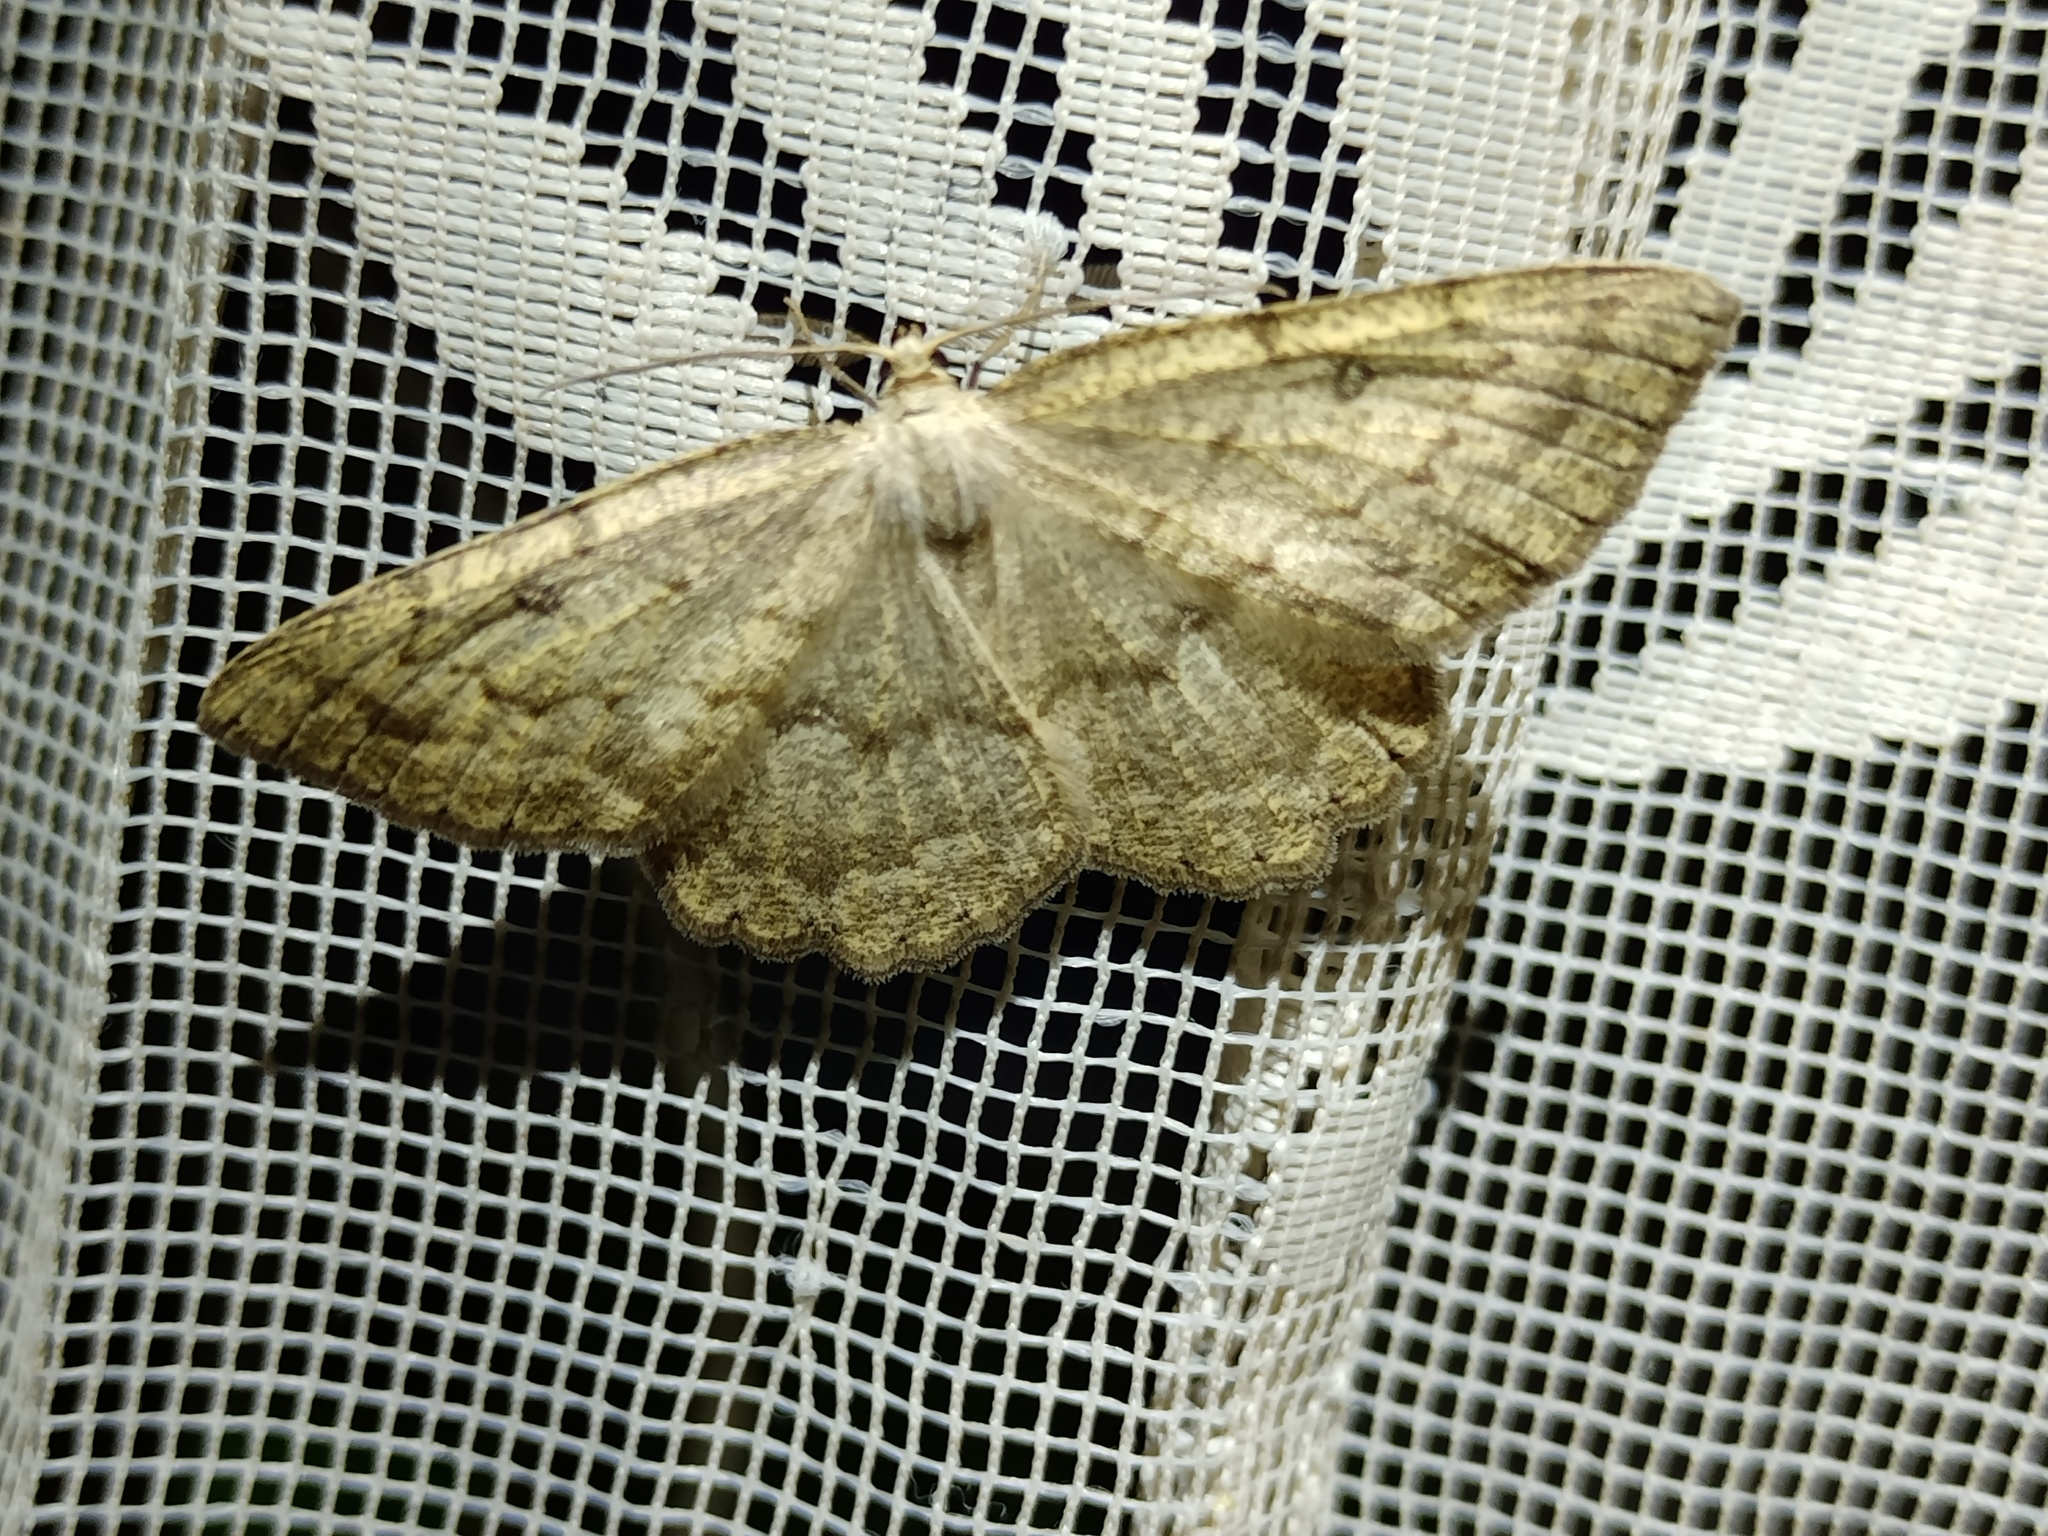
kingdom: Animalia
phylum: Arthropoda
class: Insecta
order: Lepidoptera
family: Geometridae
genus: Elophos
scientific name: Elophos Yezognophos serotinaria
